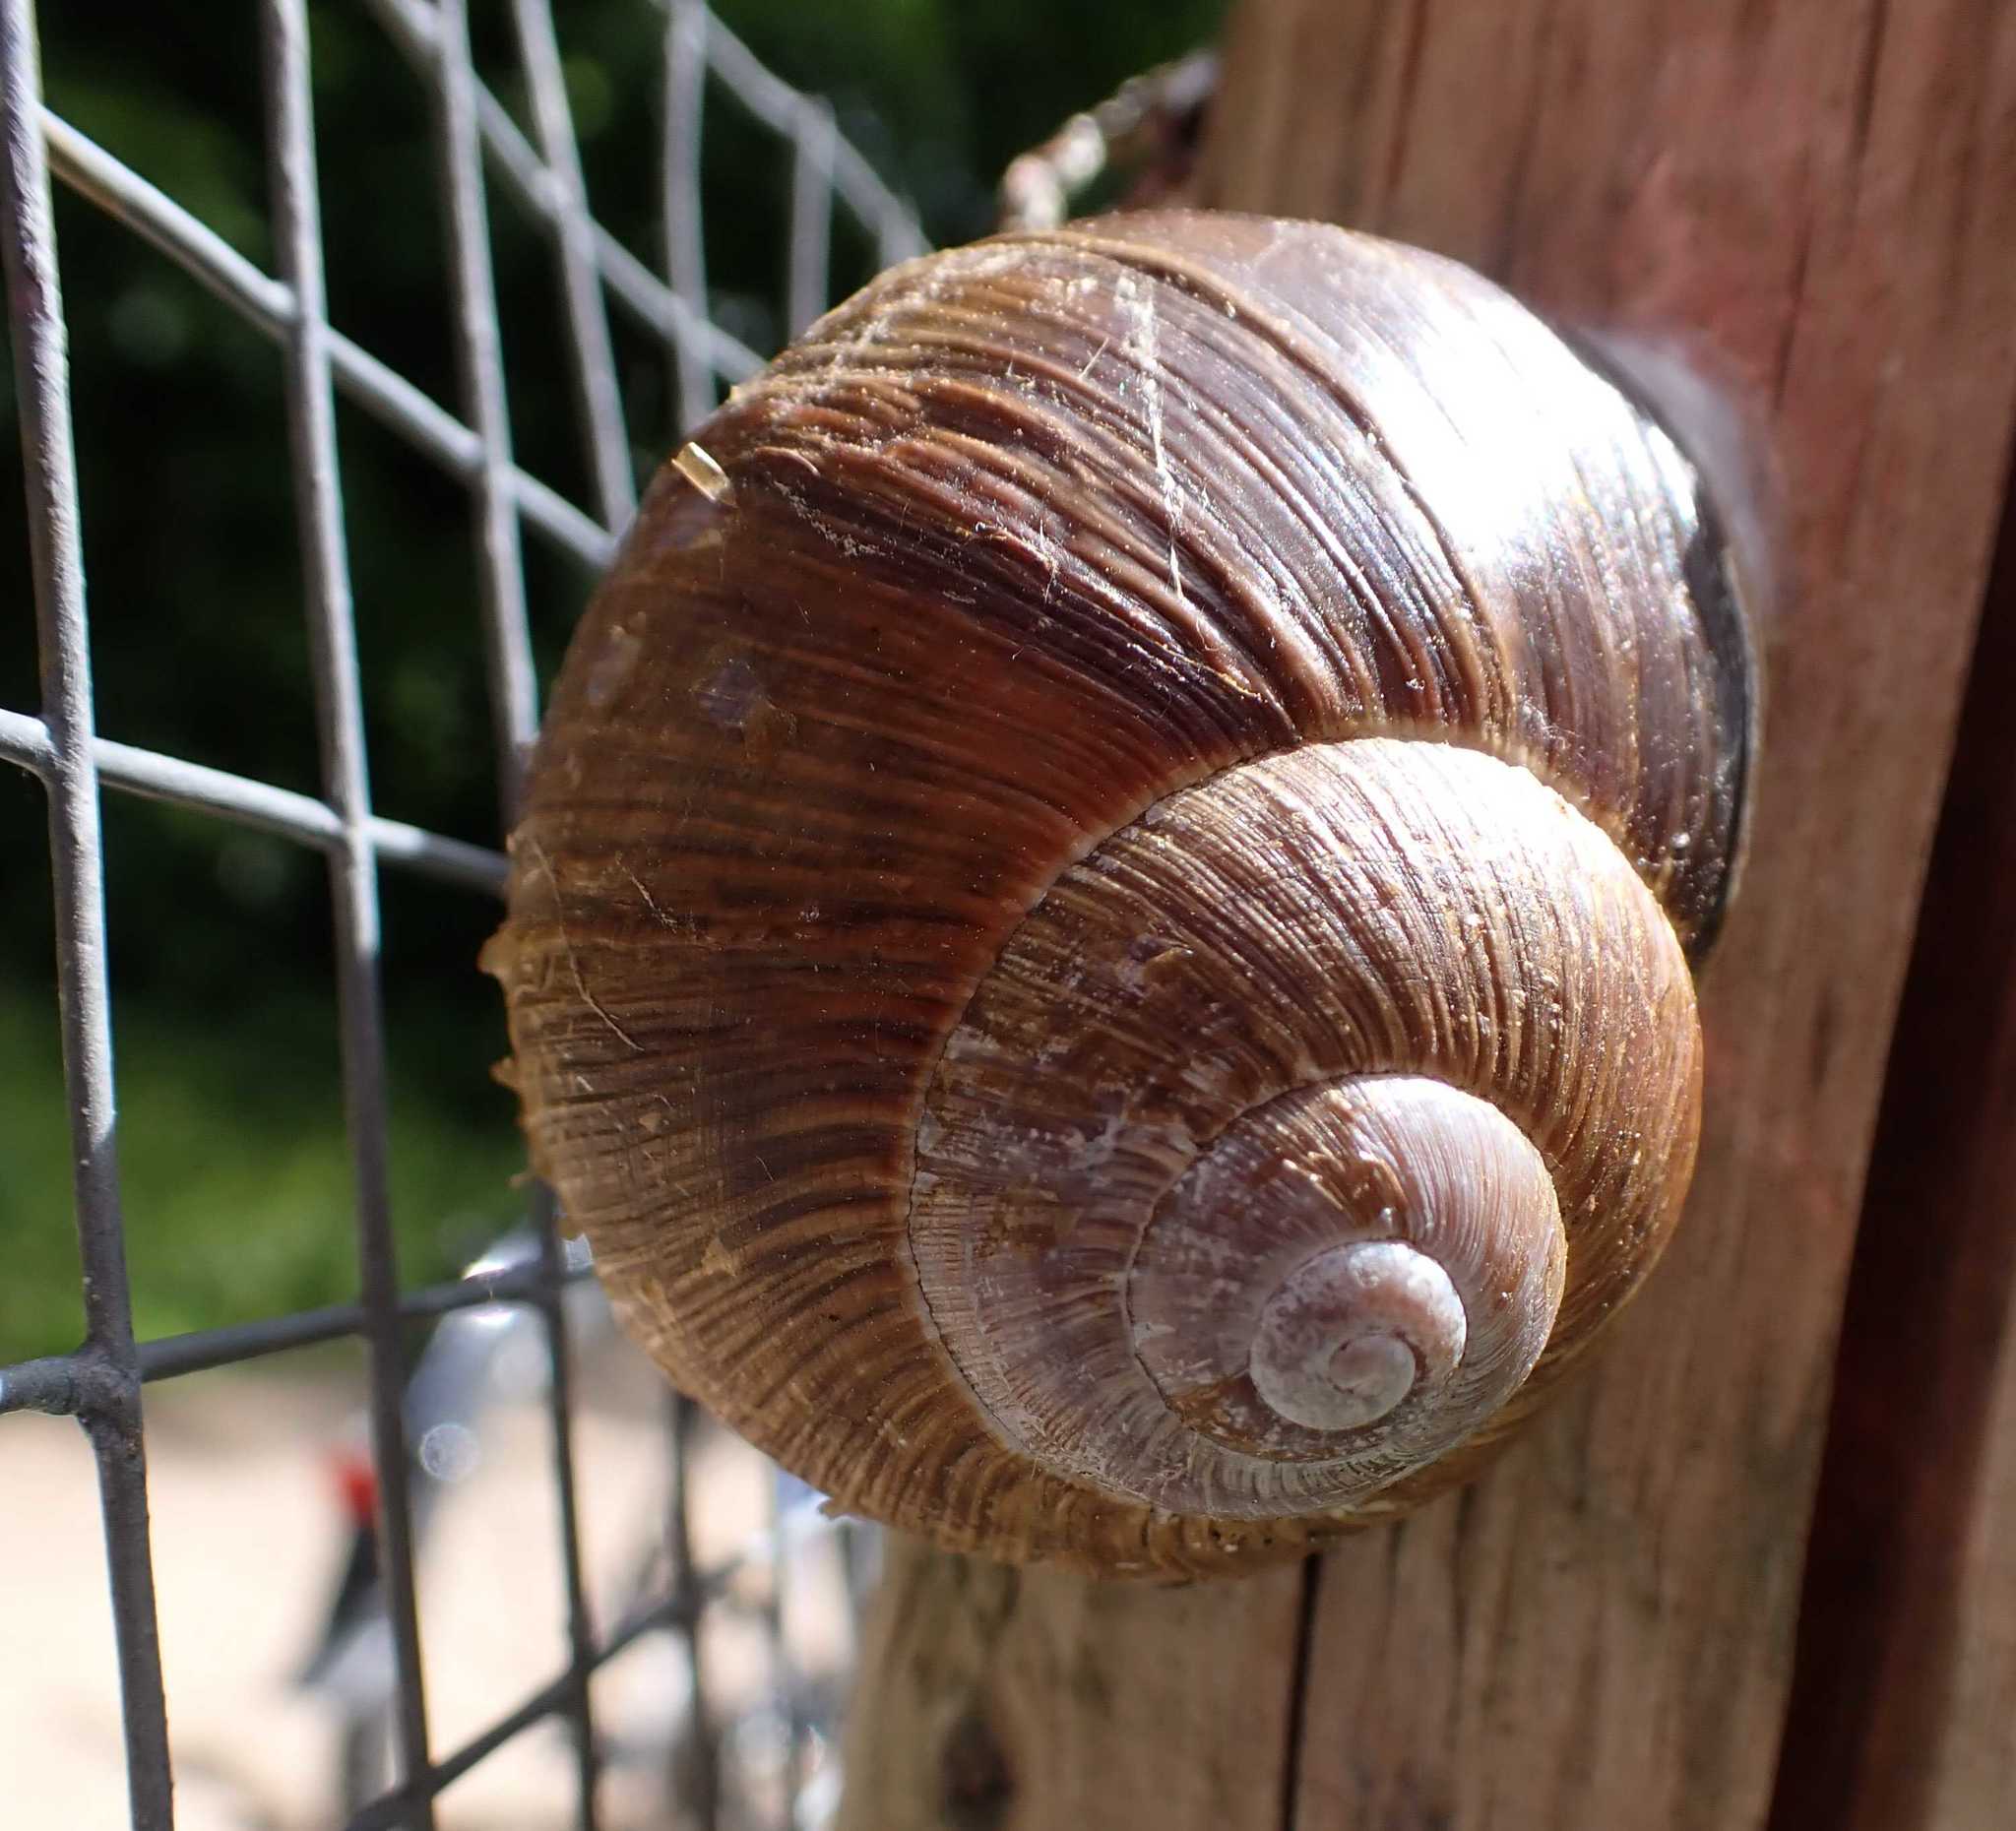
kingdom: Animalia
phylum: Mollusca
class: Gastropoda
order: Stylommatophora
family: Helicidae
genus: Helix
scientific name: Helix pomatia
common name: Roman snail
